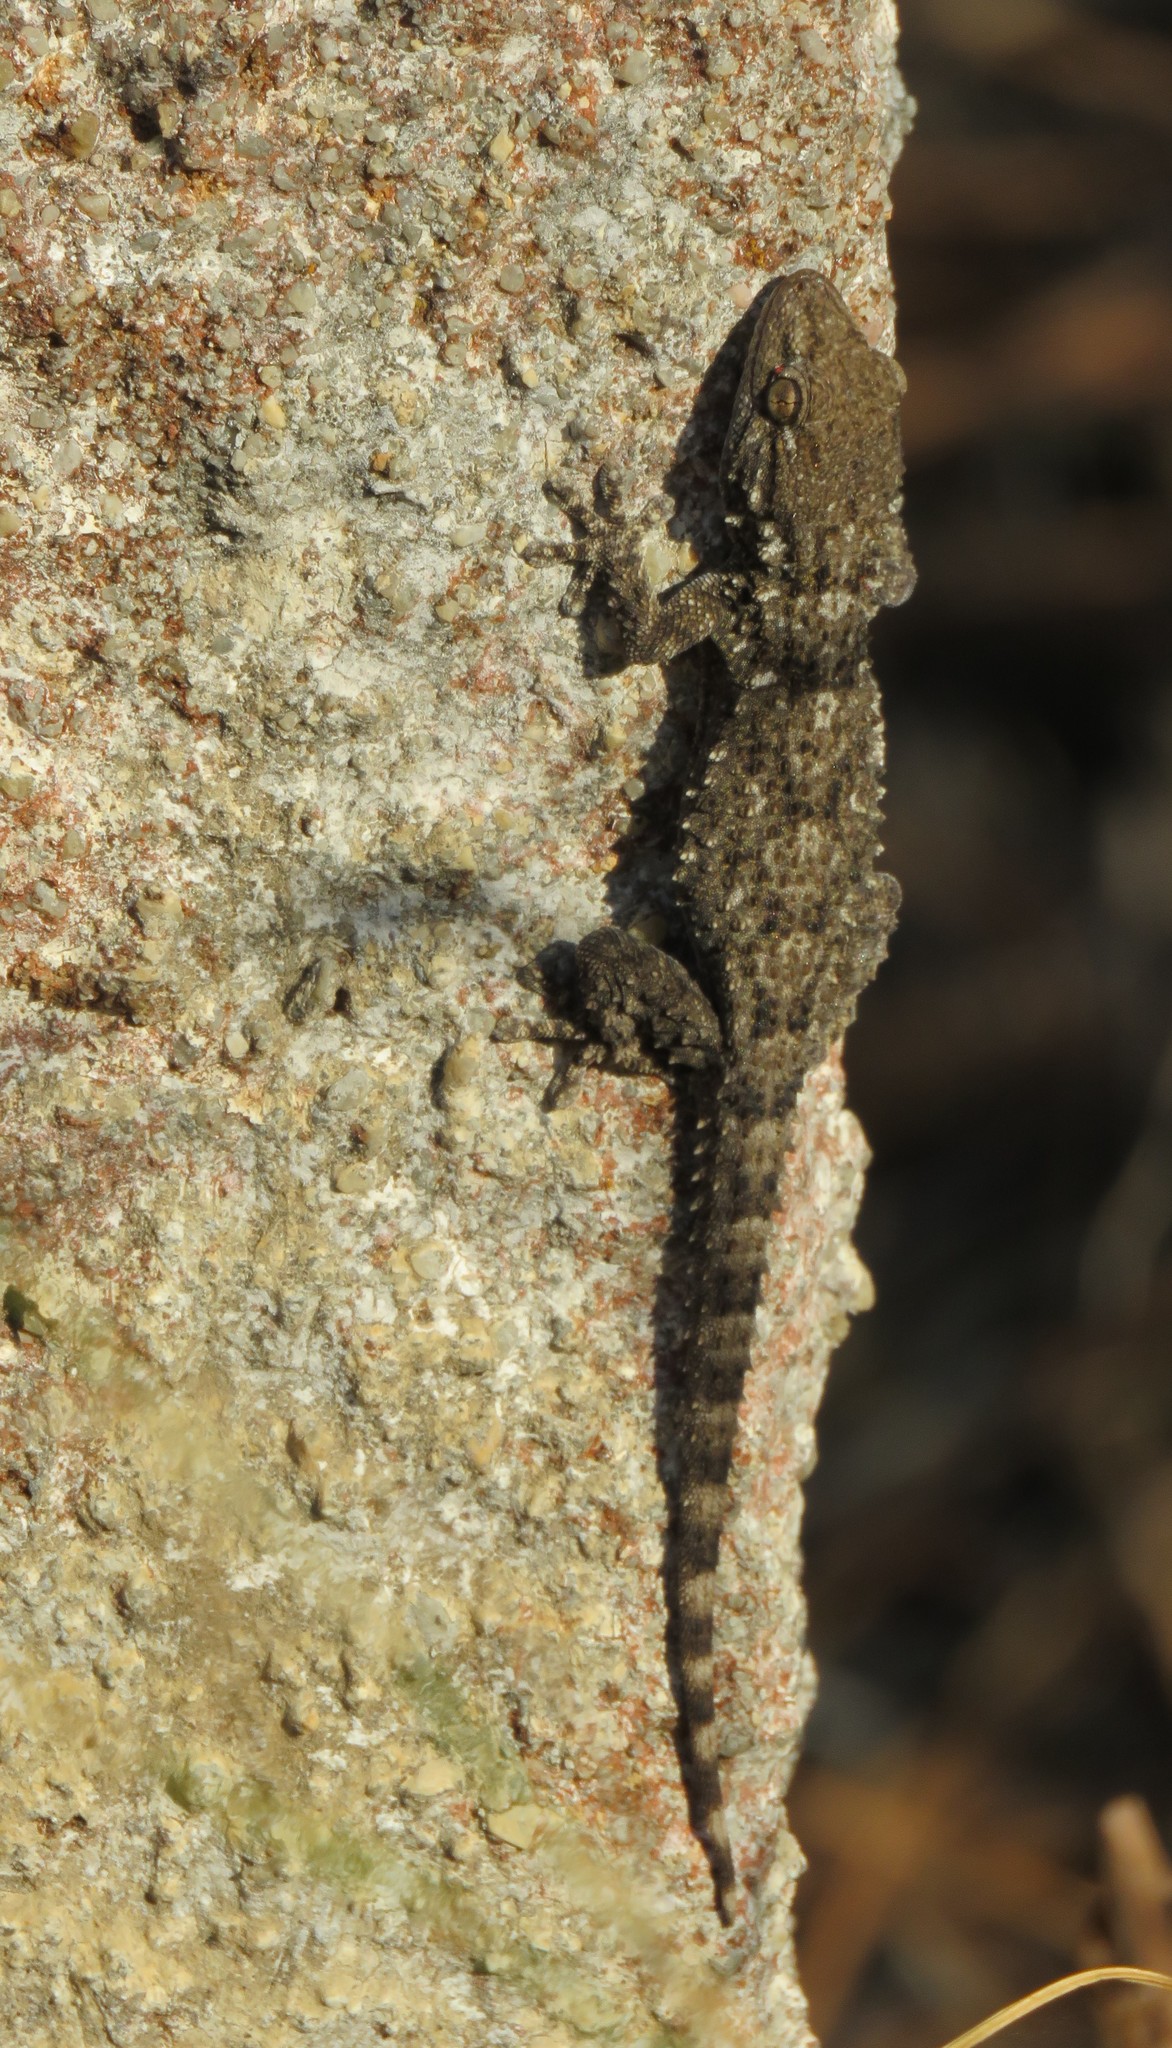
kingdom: Animalia
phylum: Chordata
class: Squamata
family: Phyllodactylidae
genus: Tarentola
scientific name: Tarentola mauritanica
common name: Moorish gecko
